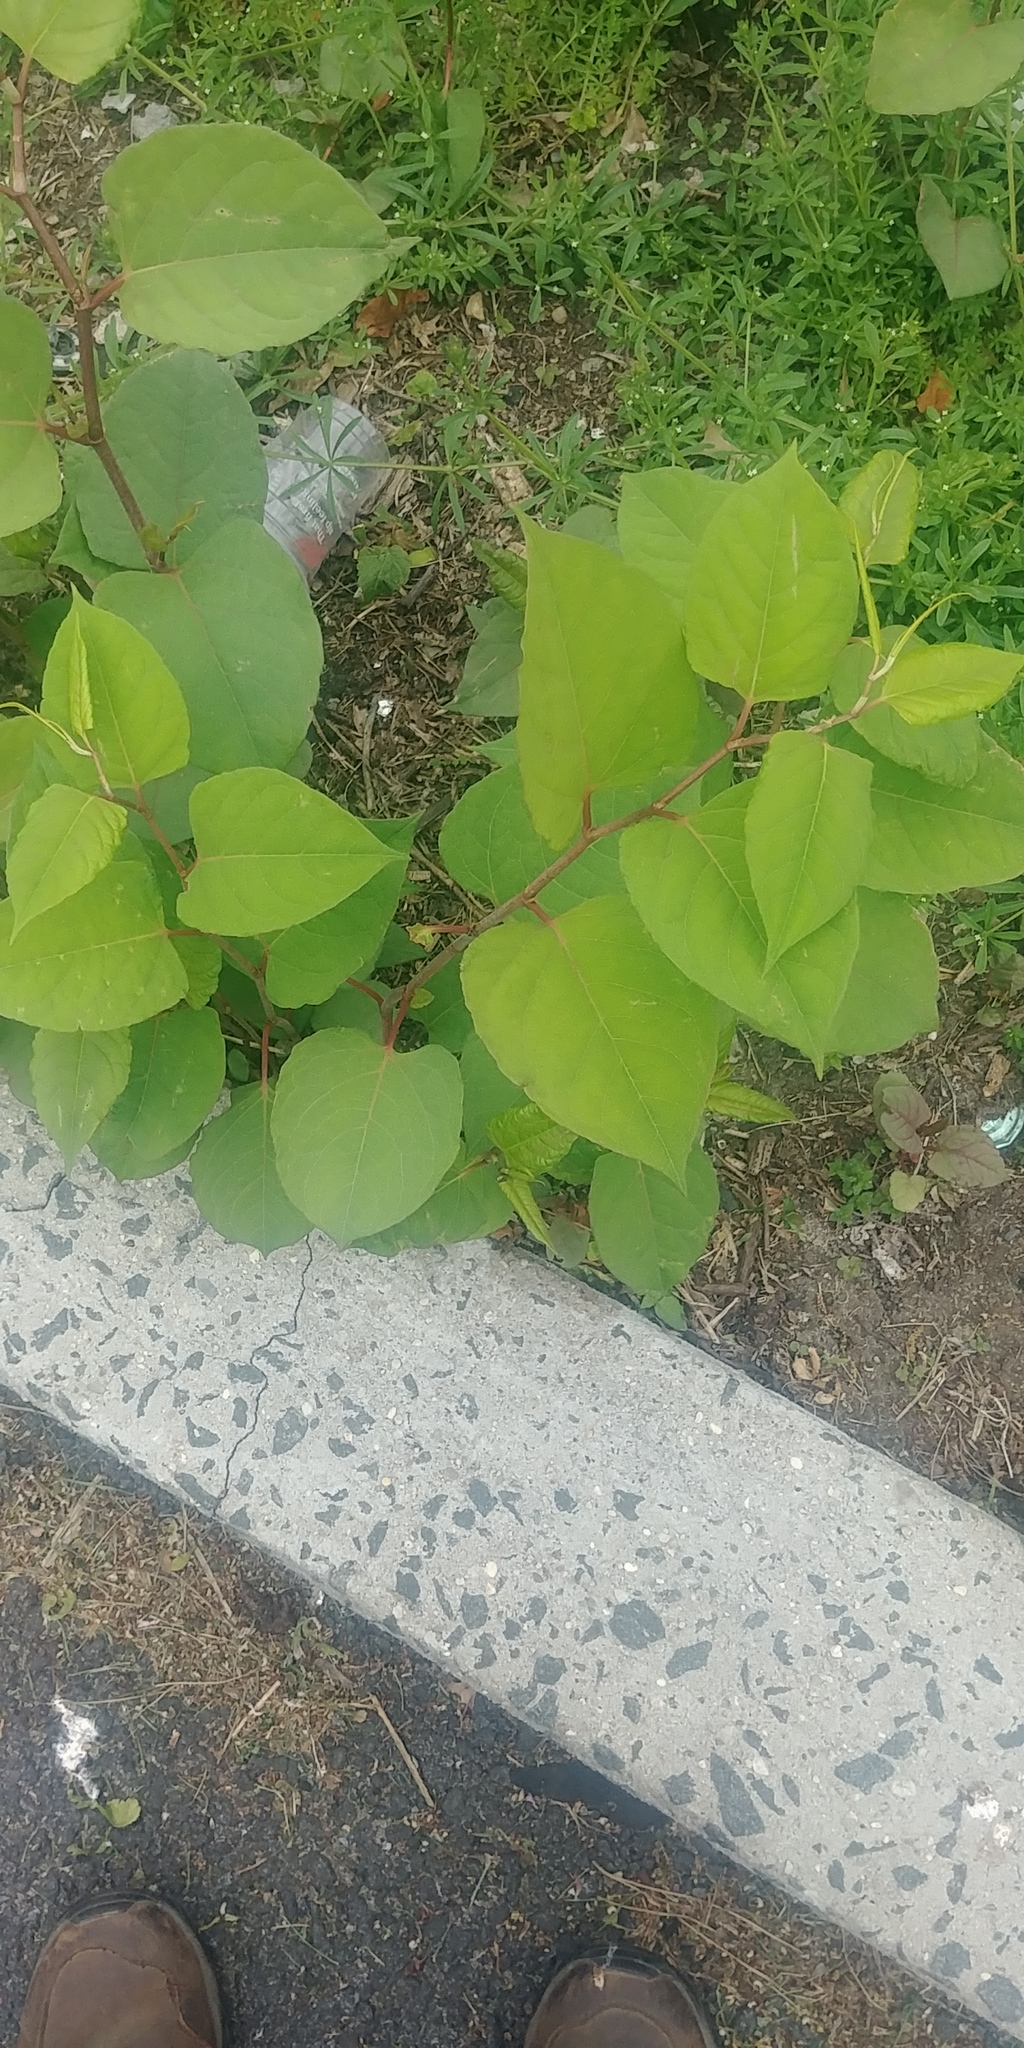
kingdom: Plantae
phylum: Tracheophyta
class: Magnoliopsida
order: Caryophyllales
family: Polygonaceae
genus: Reynoutria
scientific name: Reynoutria japonica
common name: Japanese knotweed
